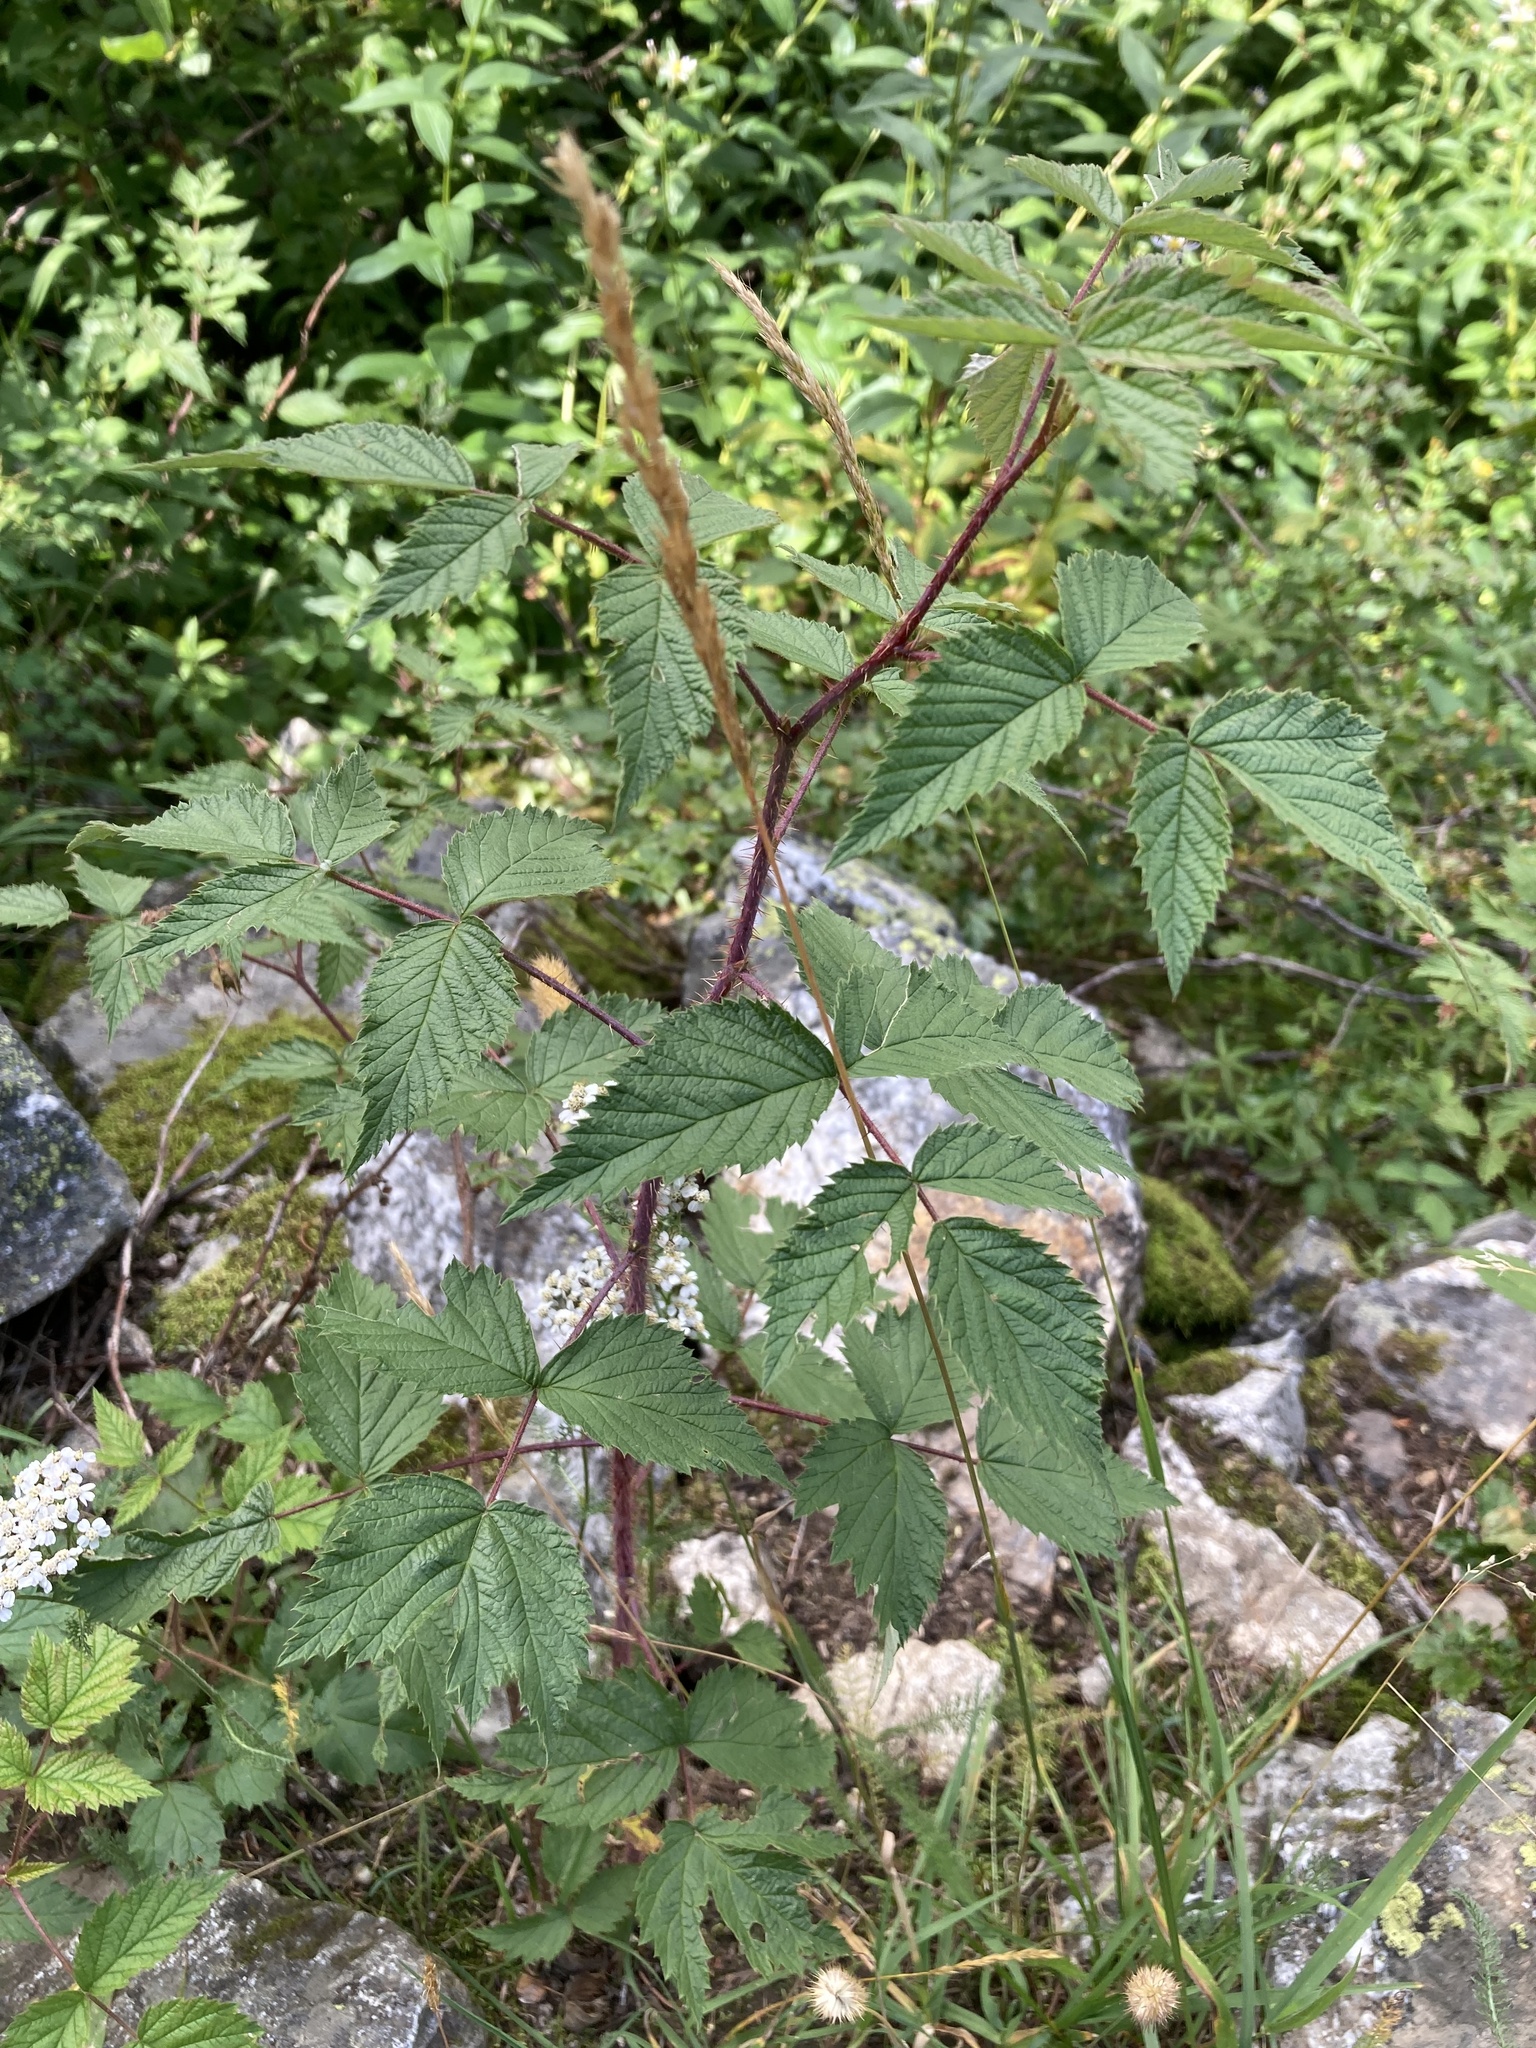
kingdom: Plantae
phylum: Tracheophyta
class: Magnoliopsida
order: Rosales
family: Rosaceae
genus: Rubus
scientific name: Rubus idaeus
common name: Raspberry
